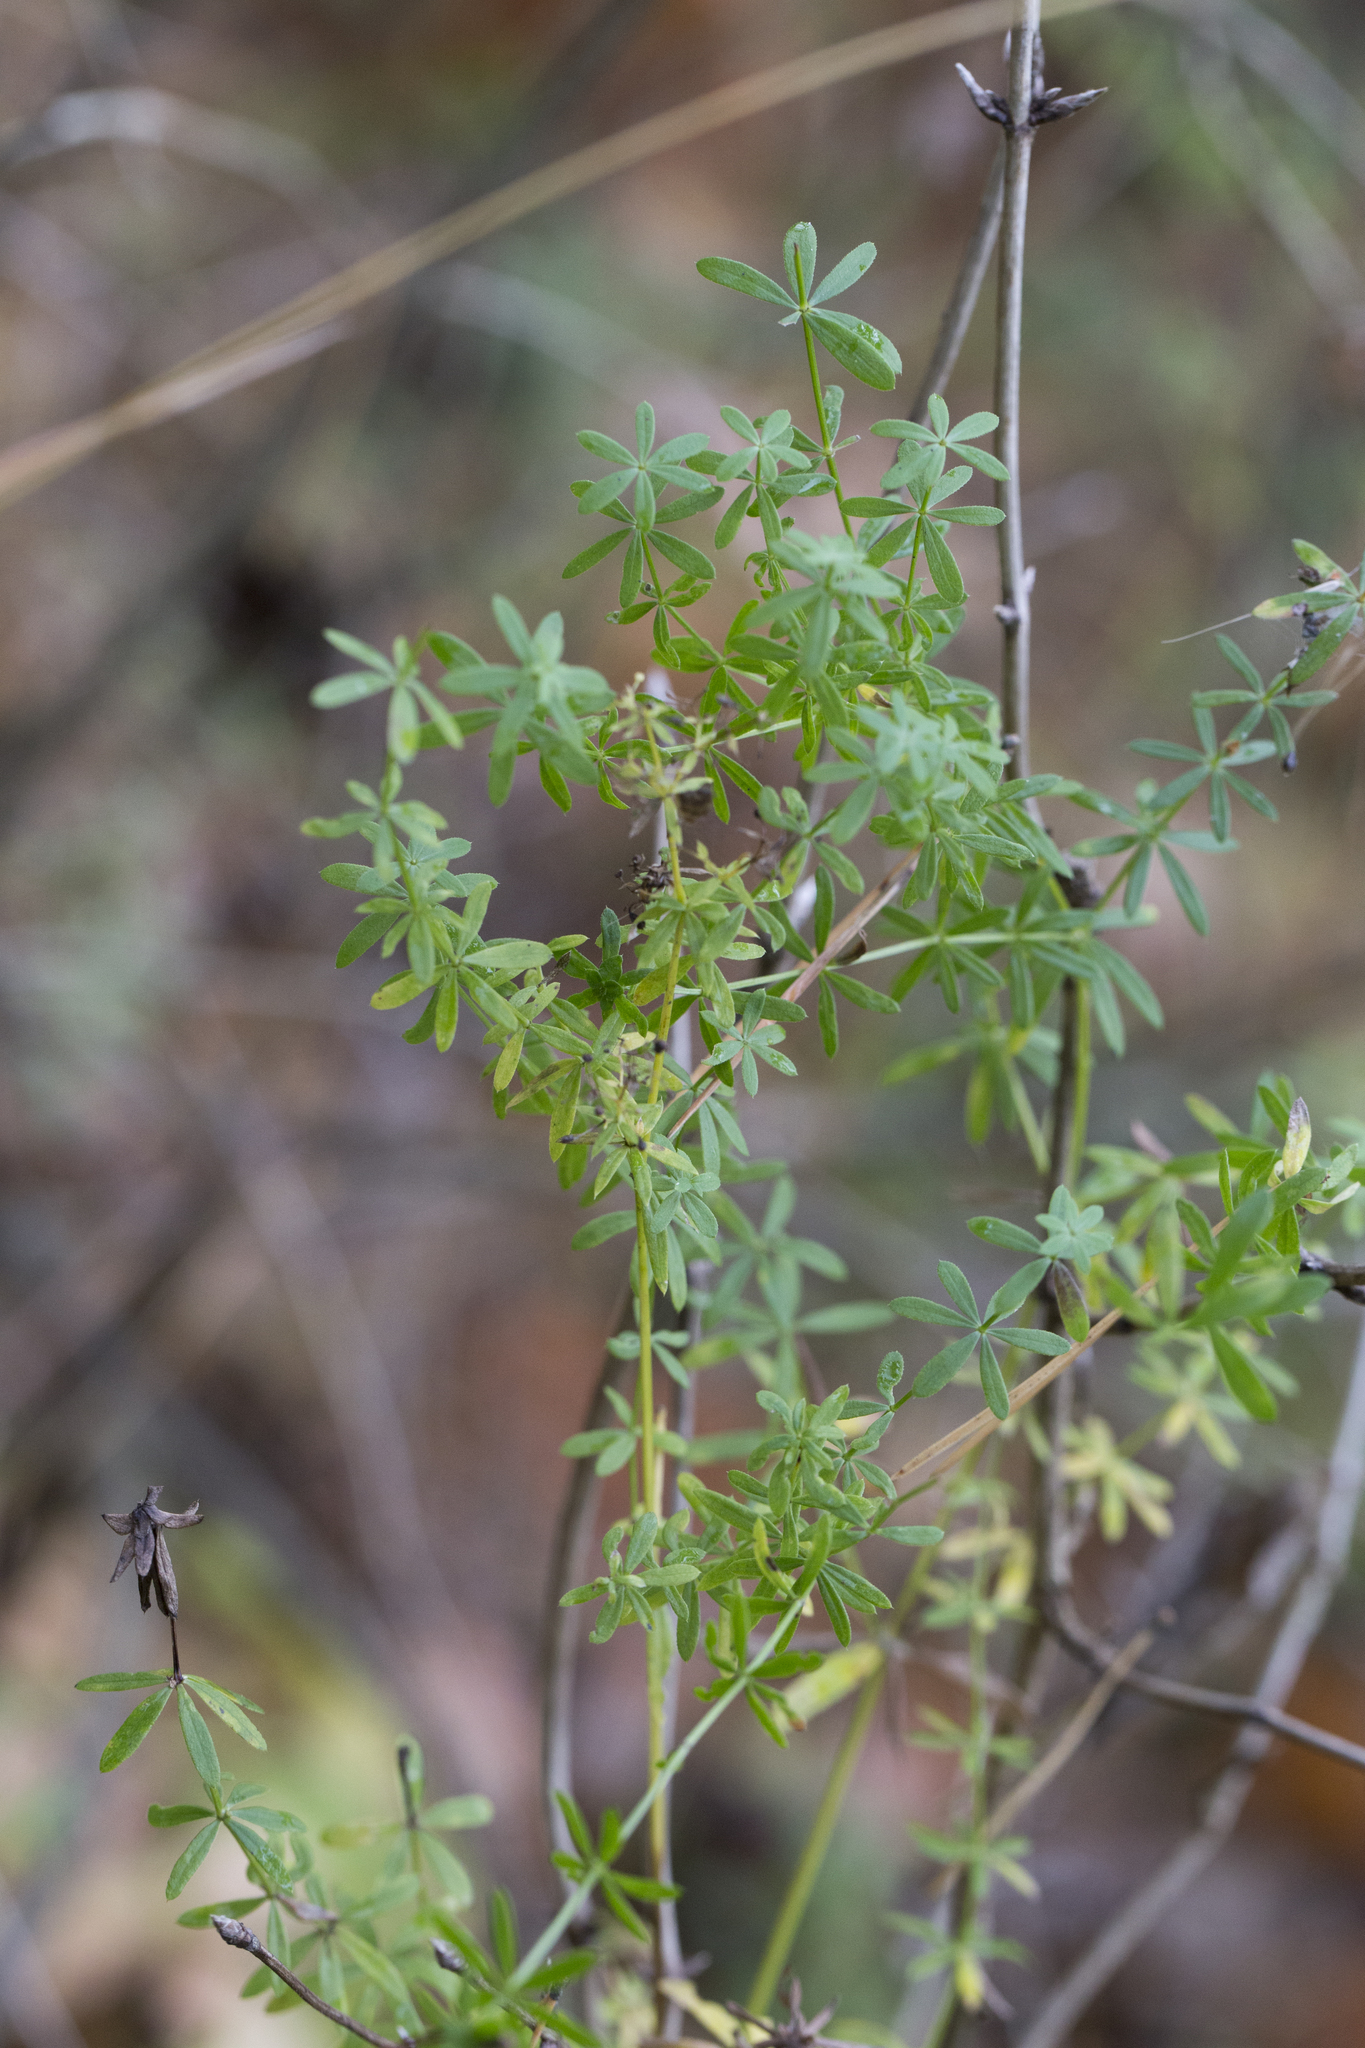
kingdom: Plantae
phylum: Tracheophyta
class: Magnoliopsida
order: Gentianales
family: Rubiaceae
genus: Galium
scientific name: Galium mollugo
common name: Hedge bedstraw
